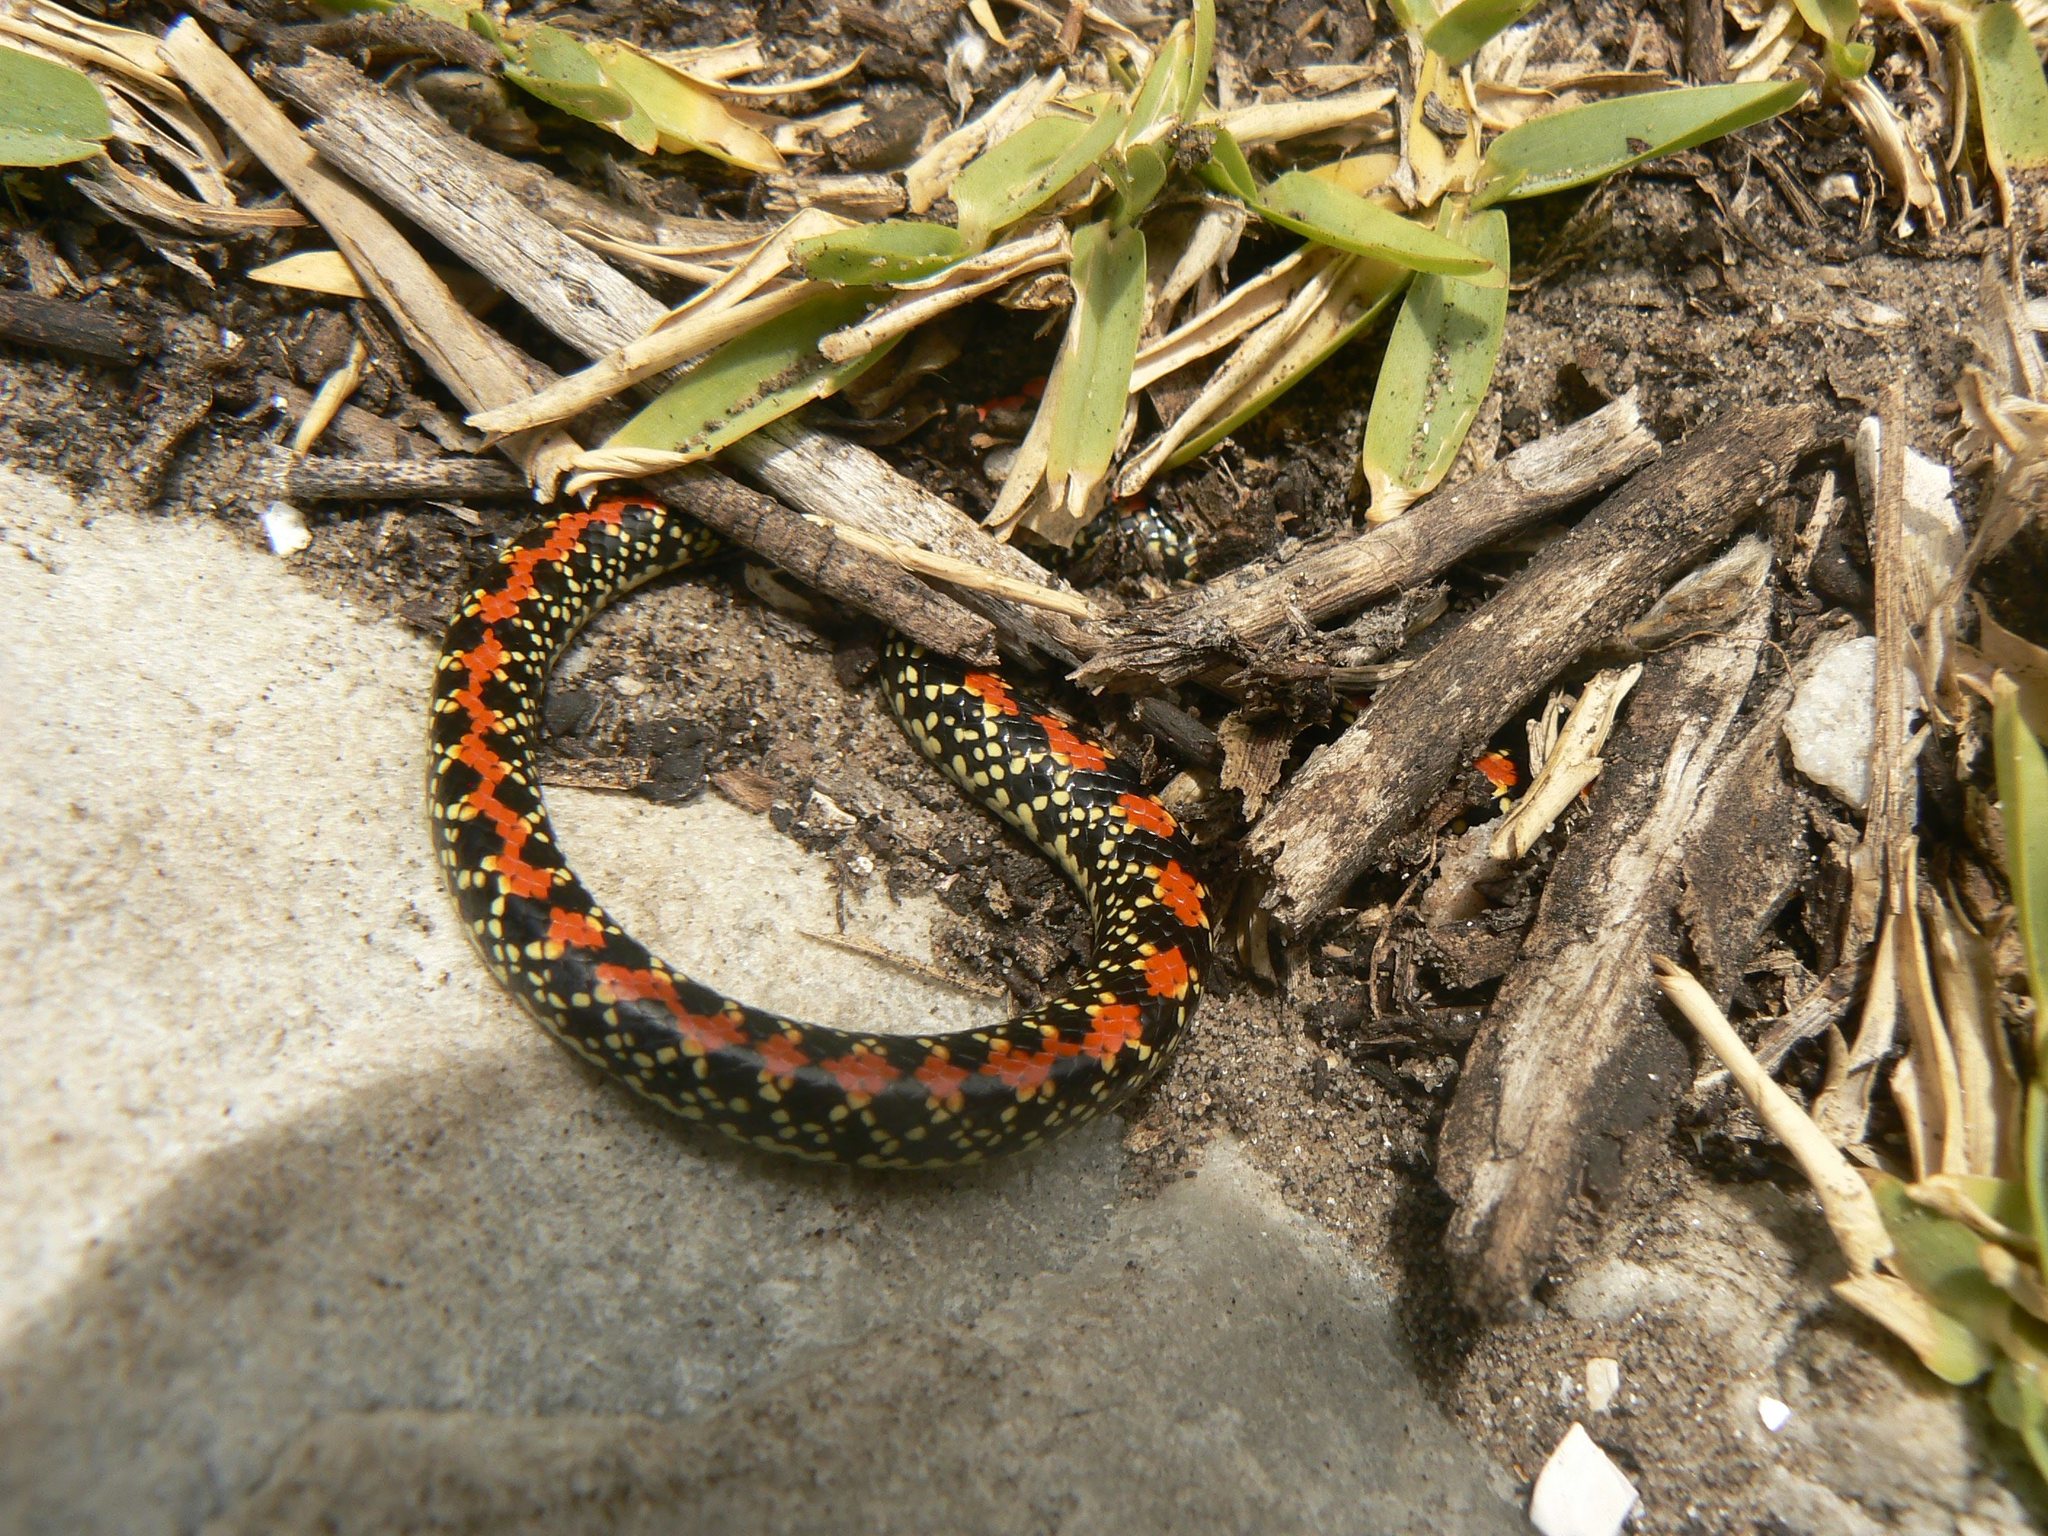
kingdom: Animalia
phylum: Chordata
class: Squamata
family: Atractaspididae
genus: Homoroselaps
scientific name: Homoroselaps lacteus
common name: Spotted harlequin snake
